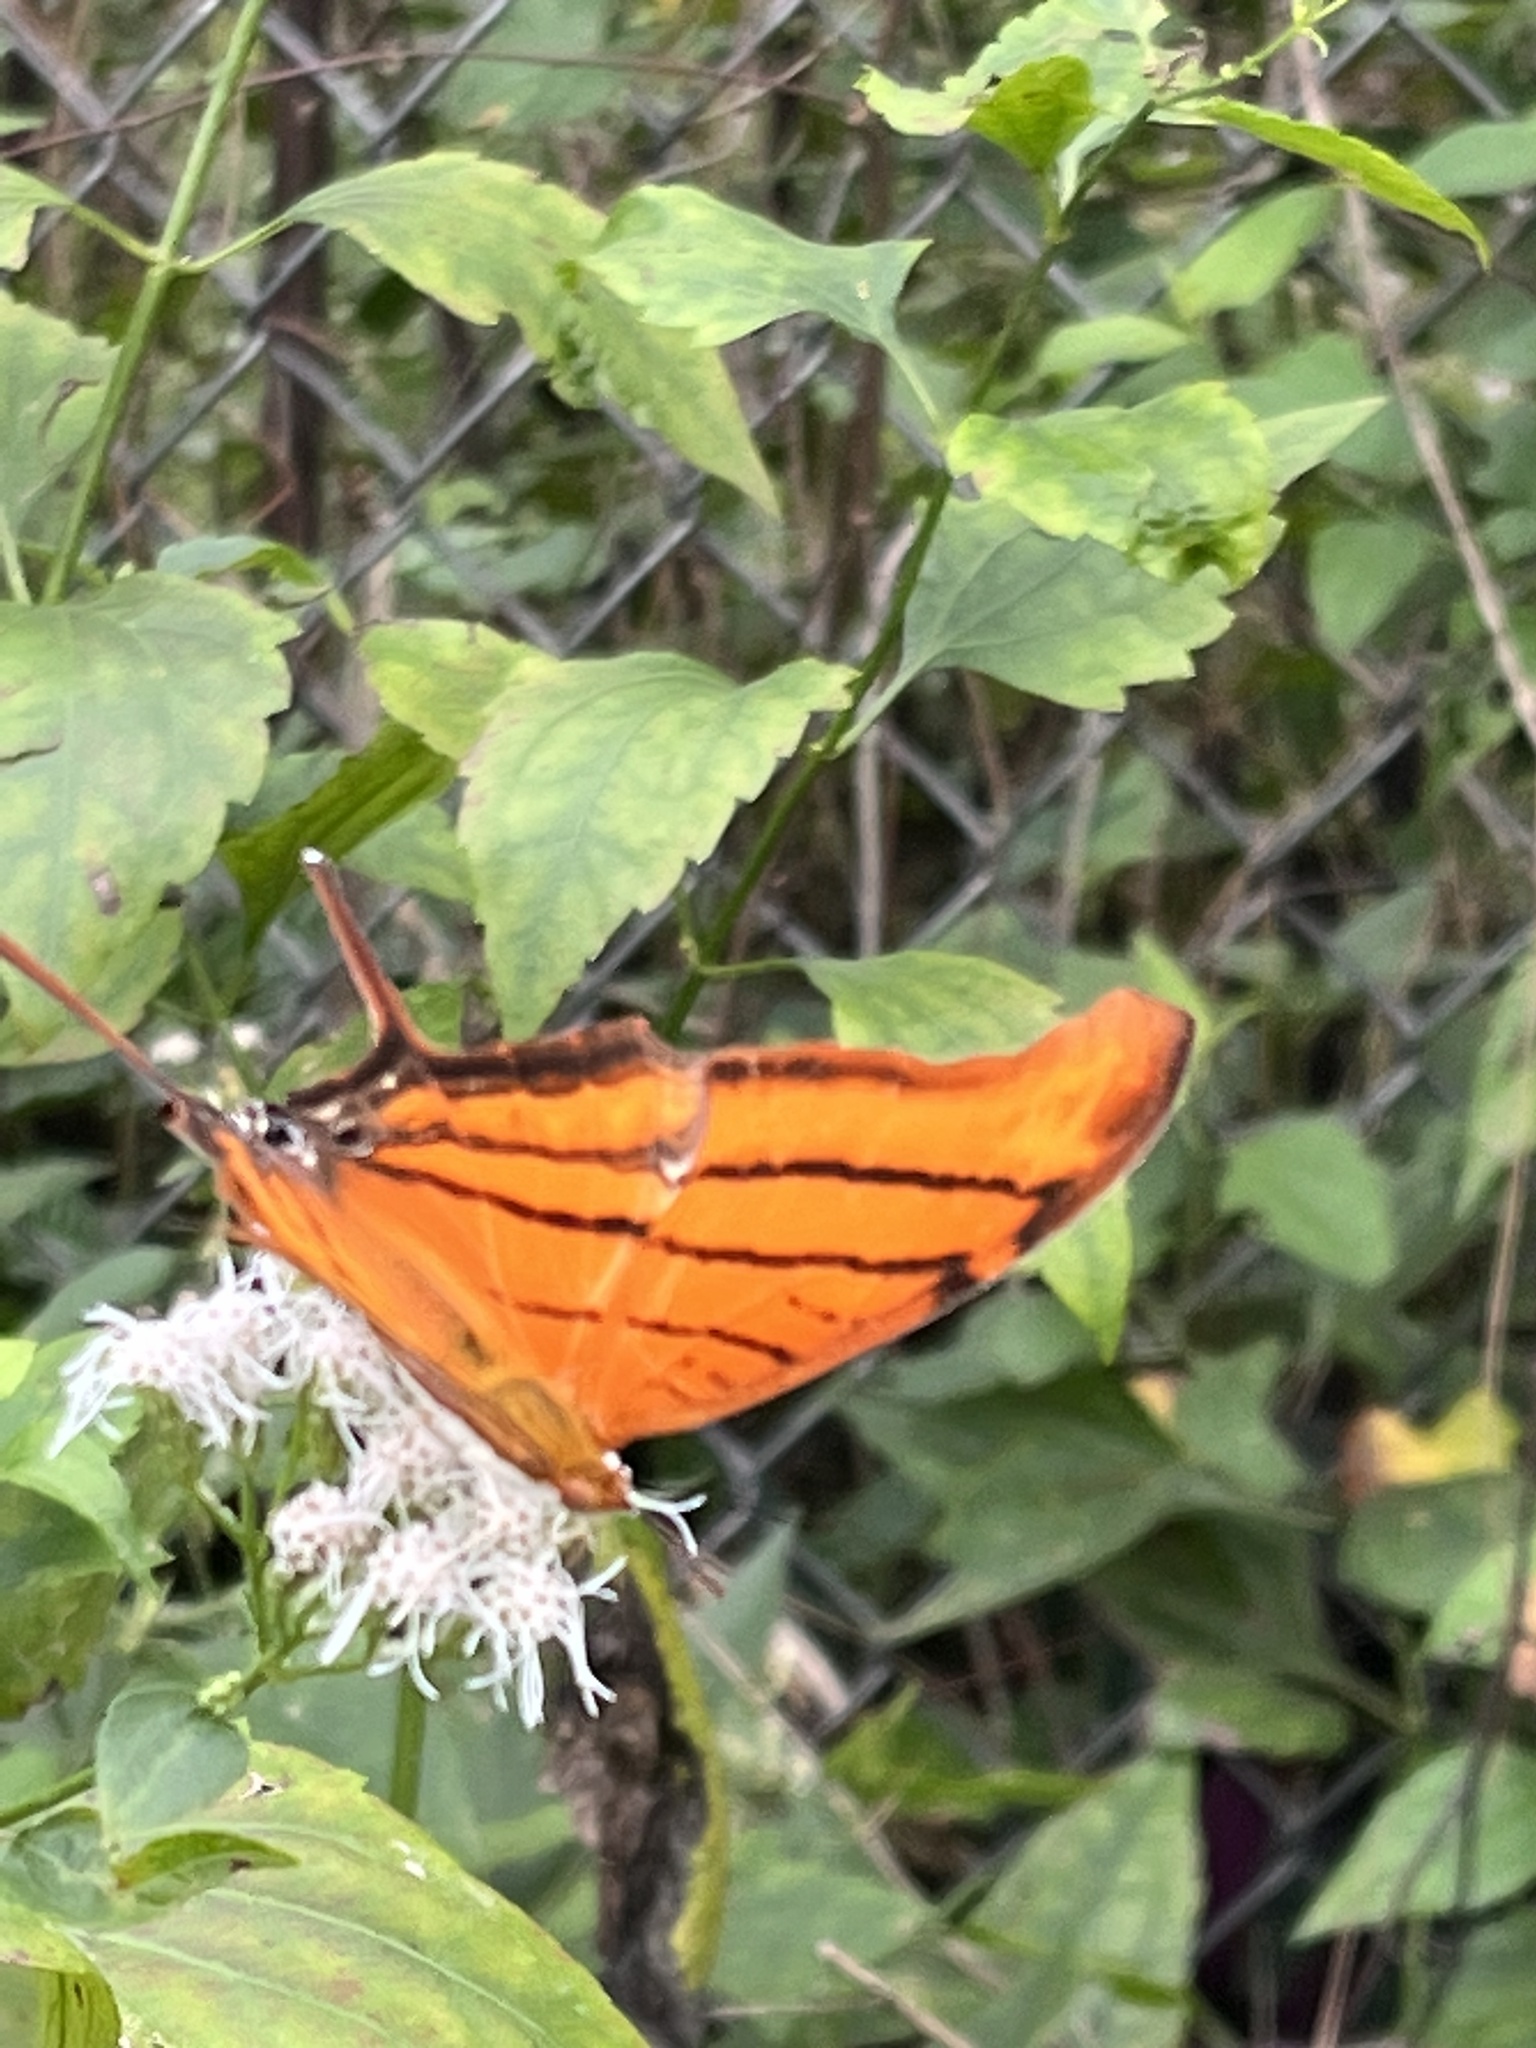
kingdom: Animalia
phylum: Arthropoda
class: Insecta
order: Lepidoptera
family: Nymphalidae
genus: Marpesia
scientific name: Marpesia petreus
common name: Red dagger wing
